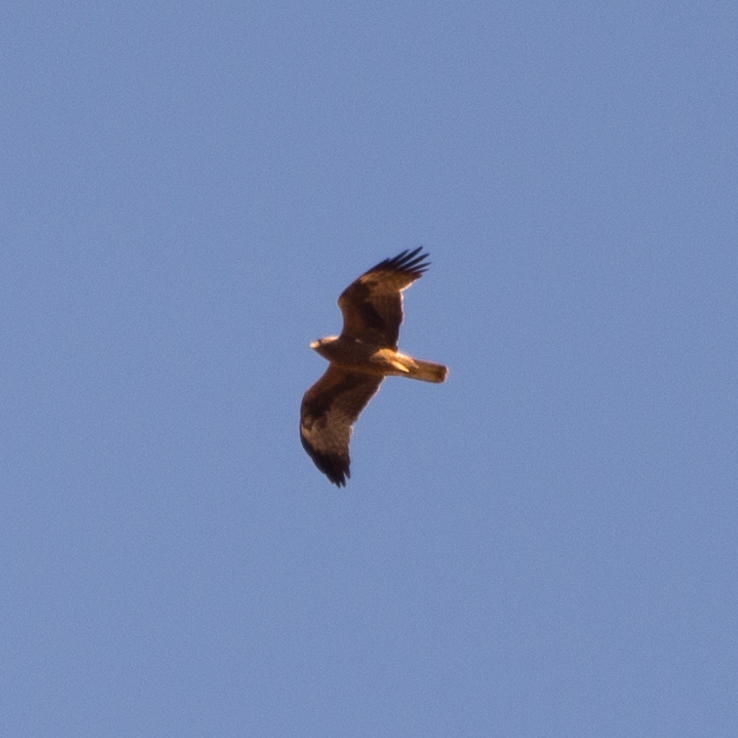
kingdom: Animalia
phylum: Chordata
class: Aves
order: Accipitriformes
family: Accipitridae
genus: Hieraaetus
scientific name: Hieraaetus pennatus
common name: Booted eagle
